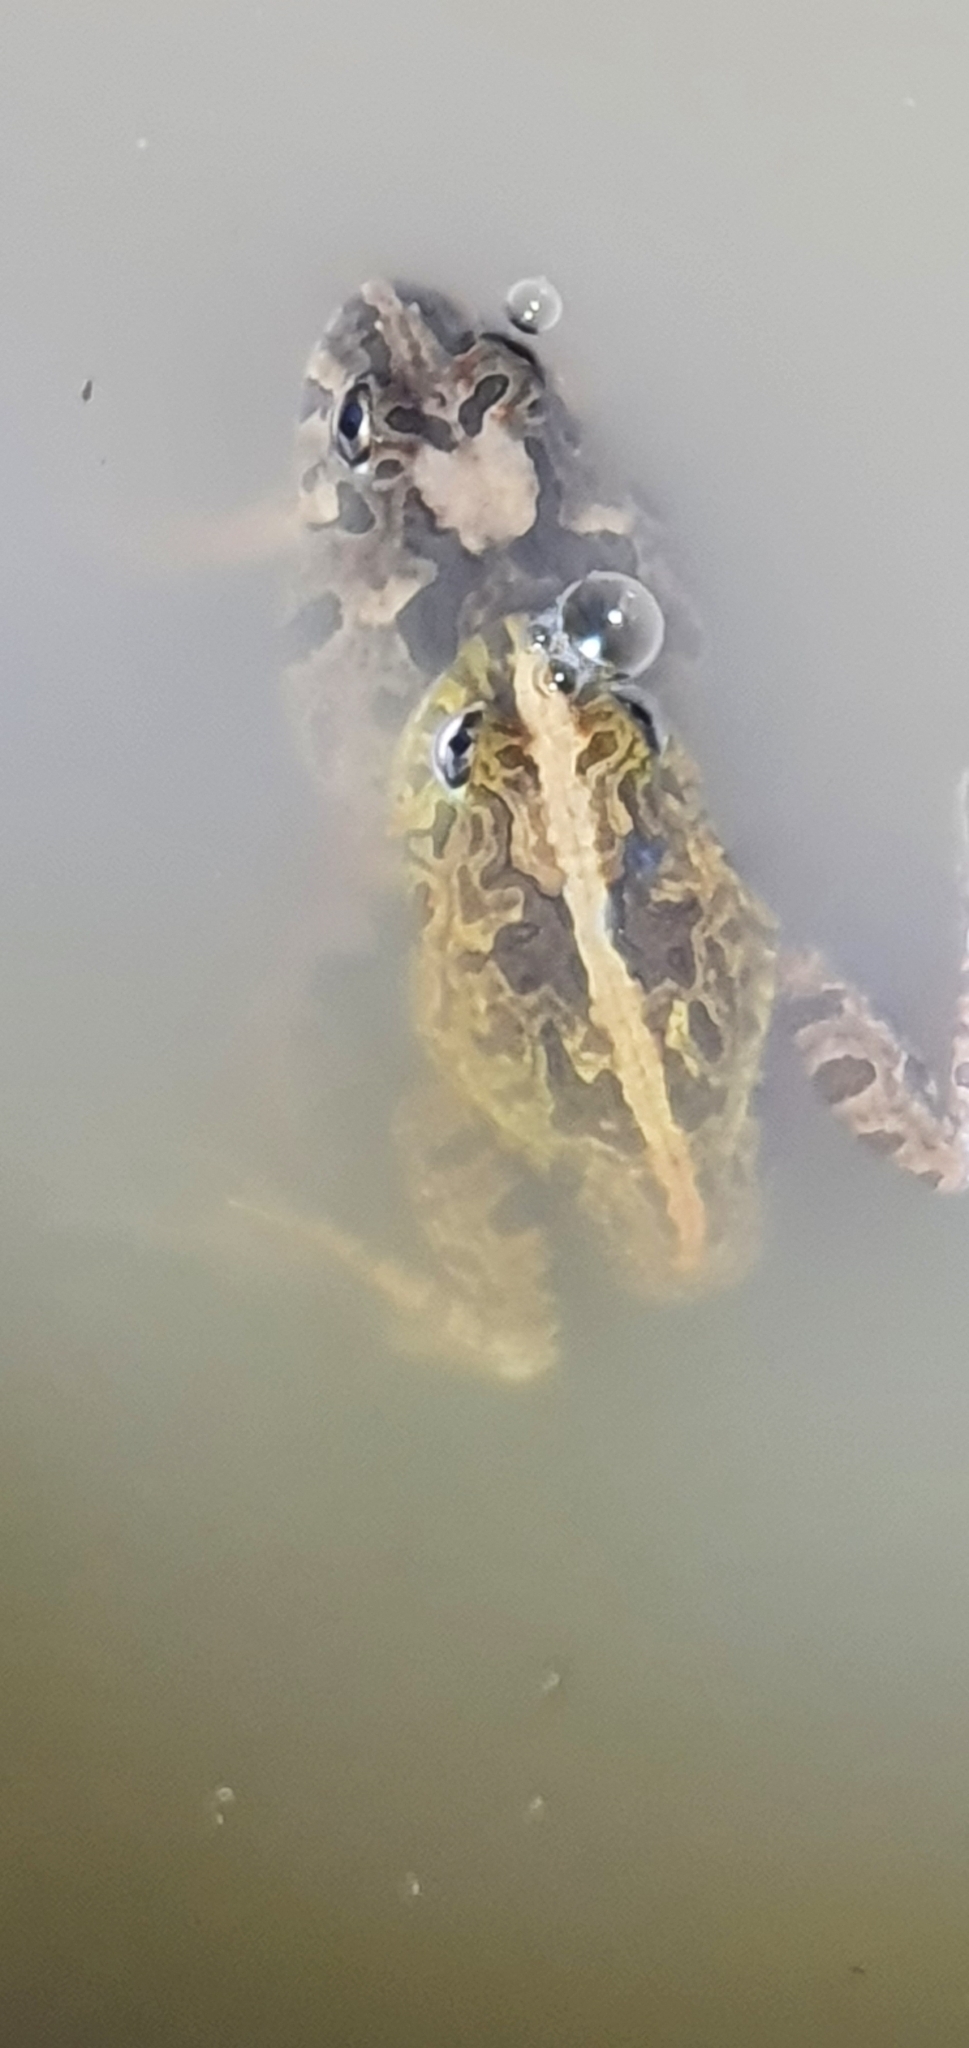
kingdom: Animalia
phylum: Chordata
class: Amphibia
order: Anura
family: Limnodynastidae
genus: Platyplectrum
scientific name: Platyplectrum ornatum
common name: Ornate burrowing frog
